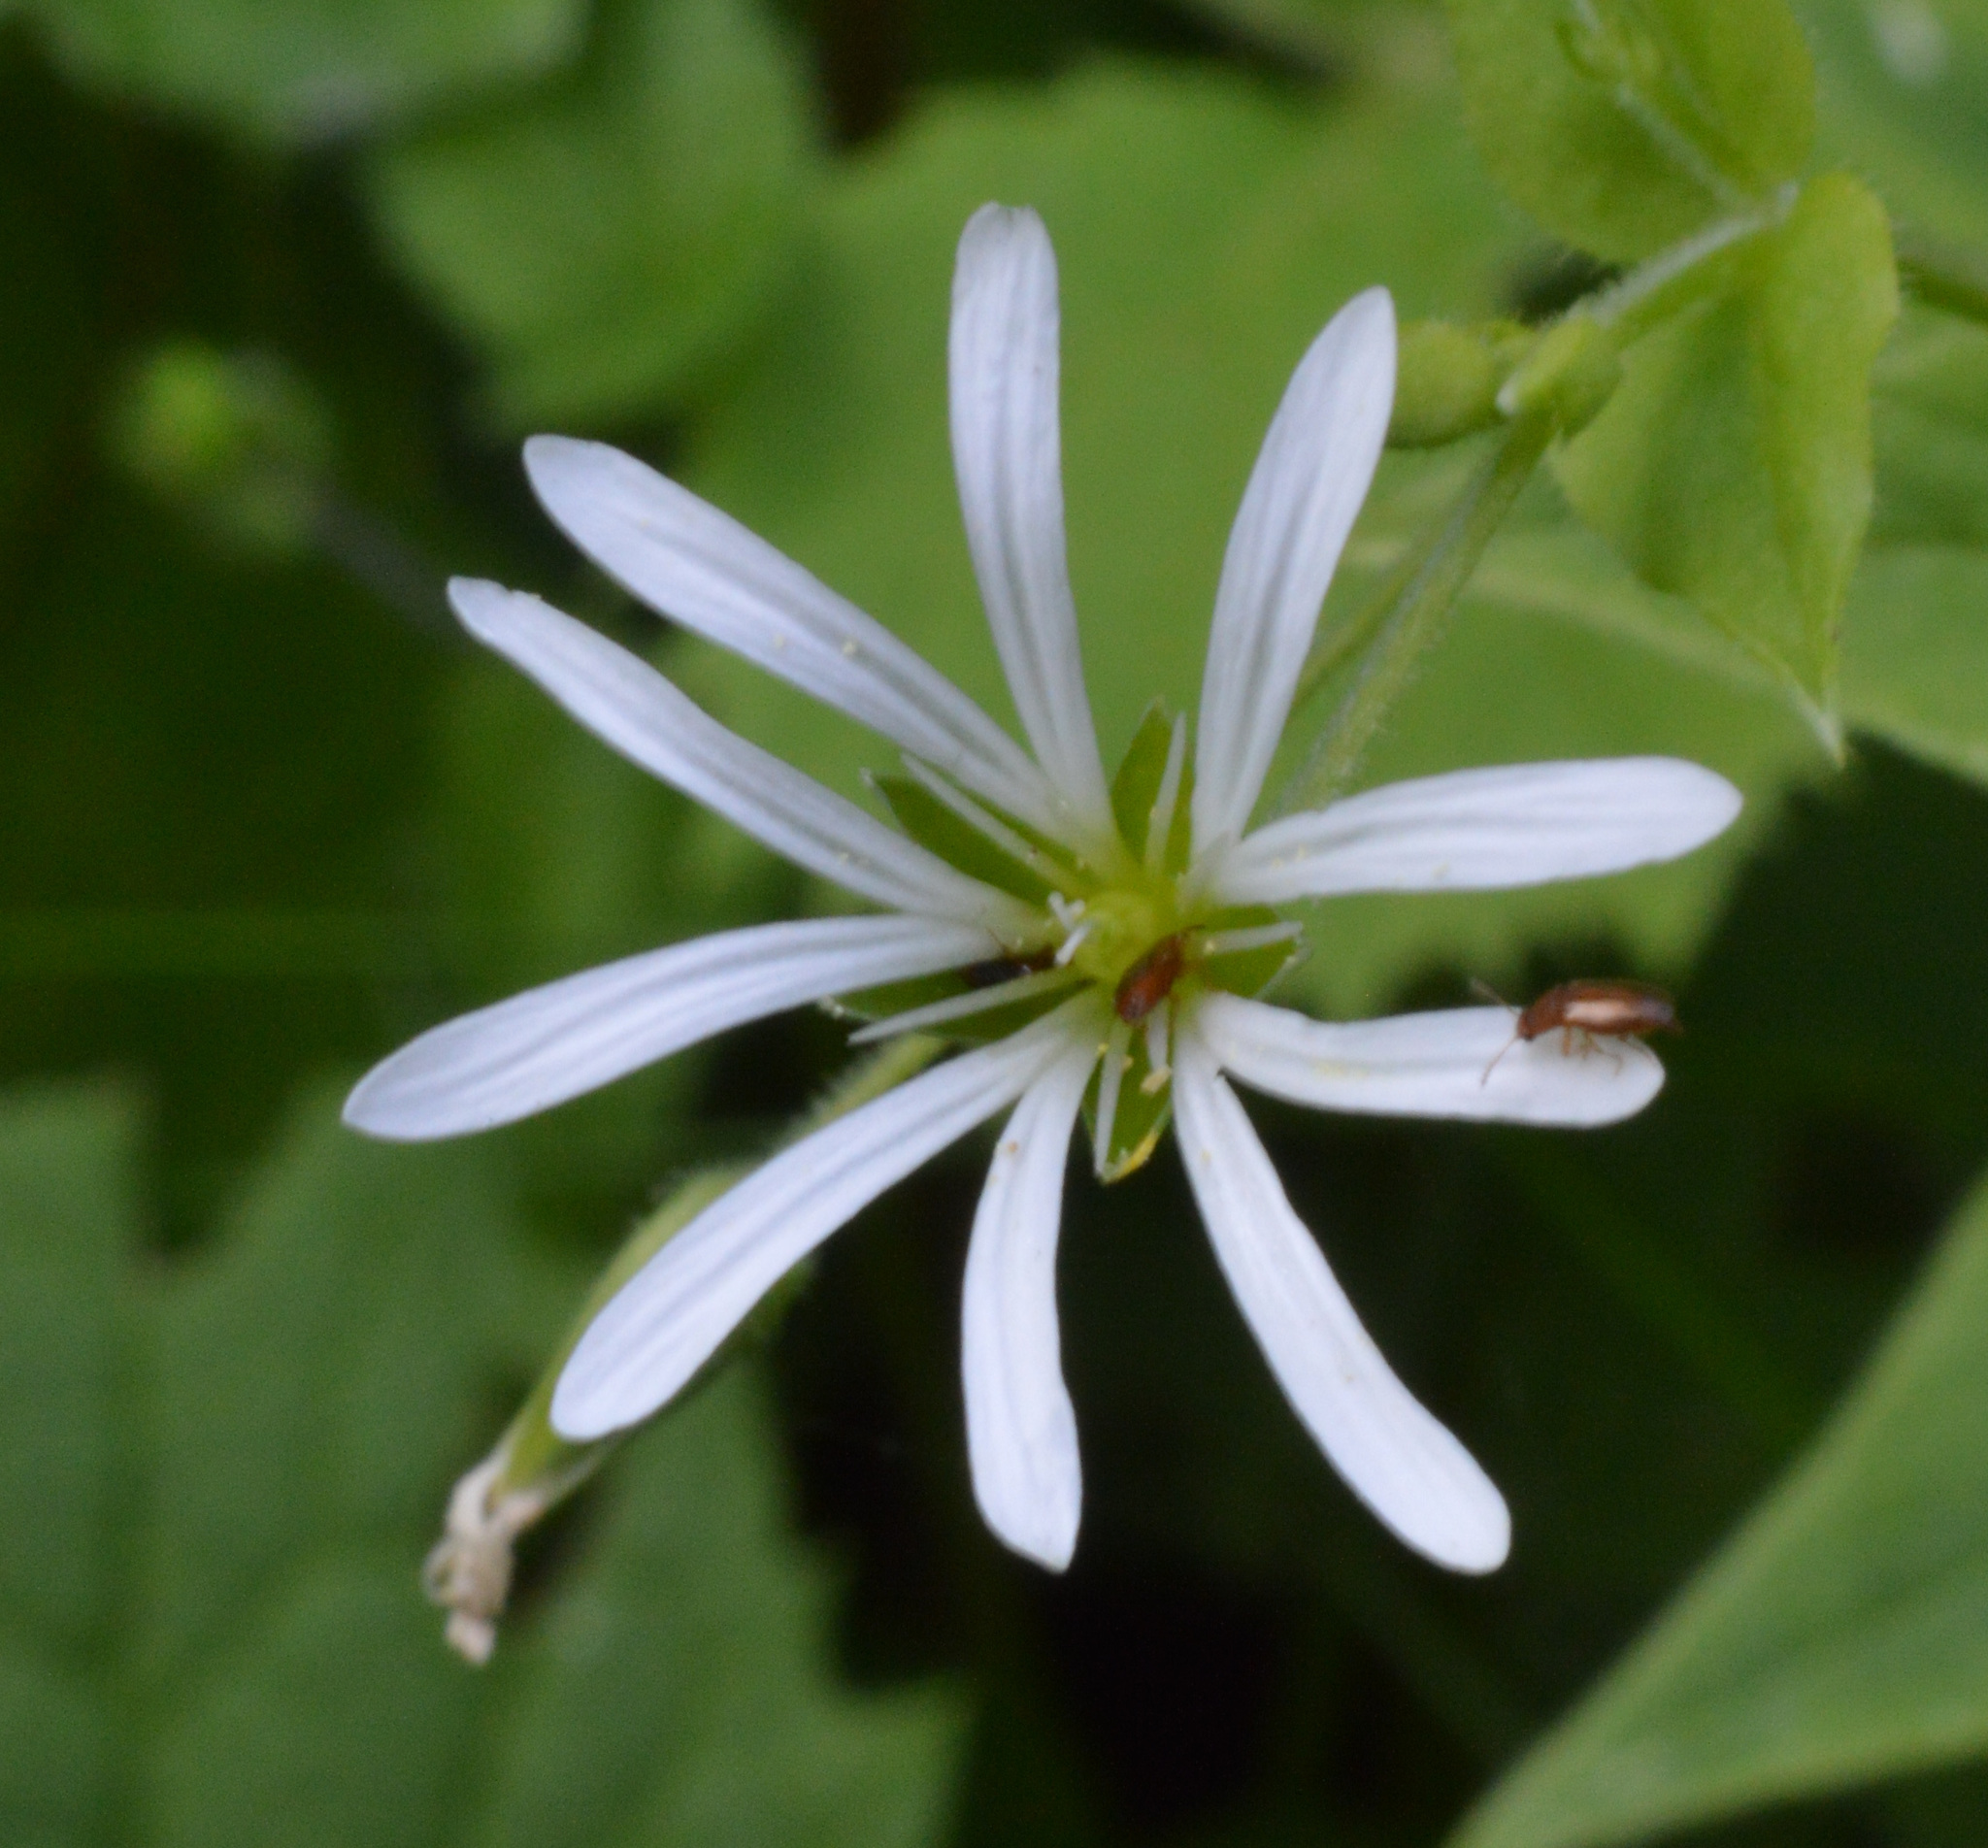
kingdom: Plantae
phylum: Tracheophyta
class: Magnoliopsida
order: Caryophyllales
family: Caryophyllaceae
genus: Stellaria
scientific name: Stellaria nemorum
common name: Wood stitchwort
